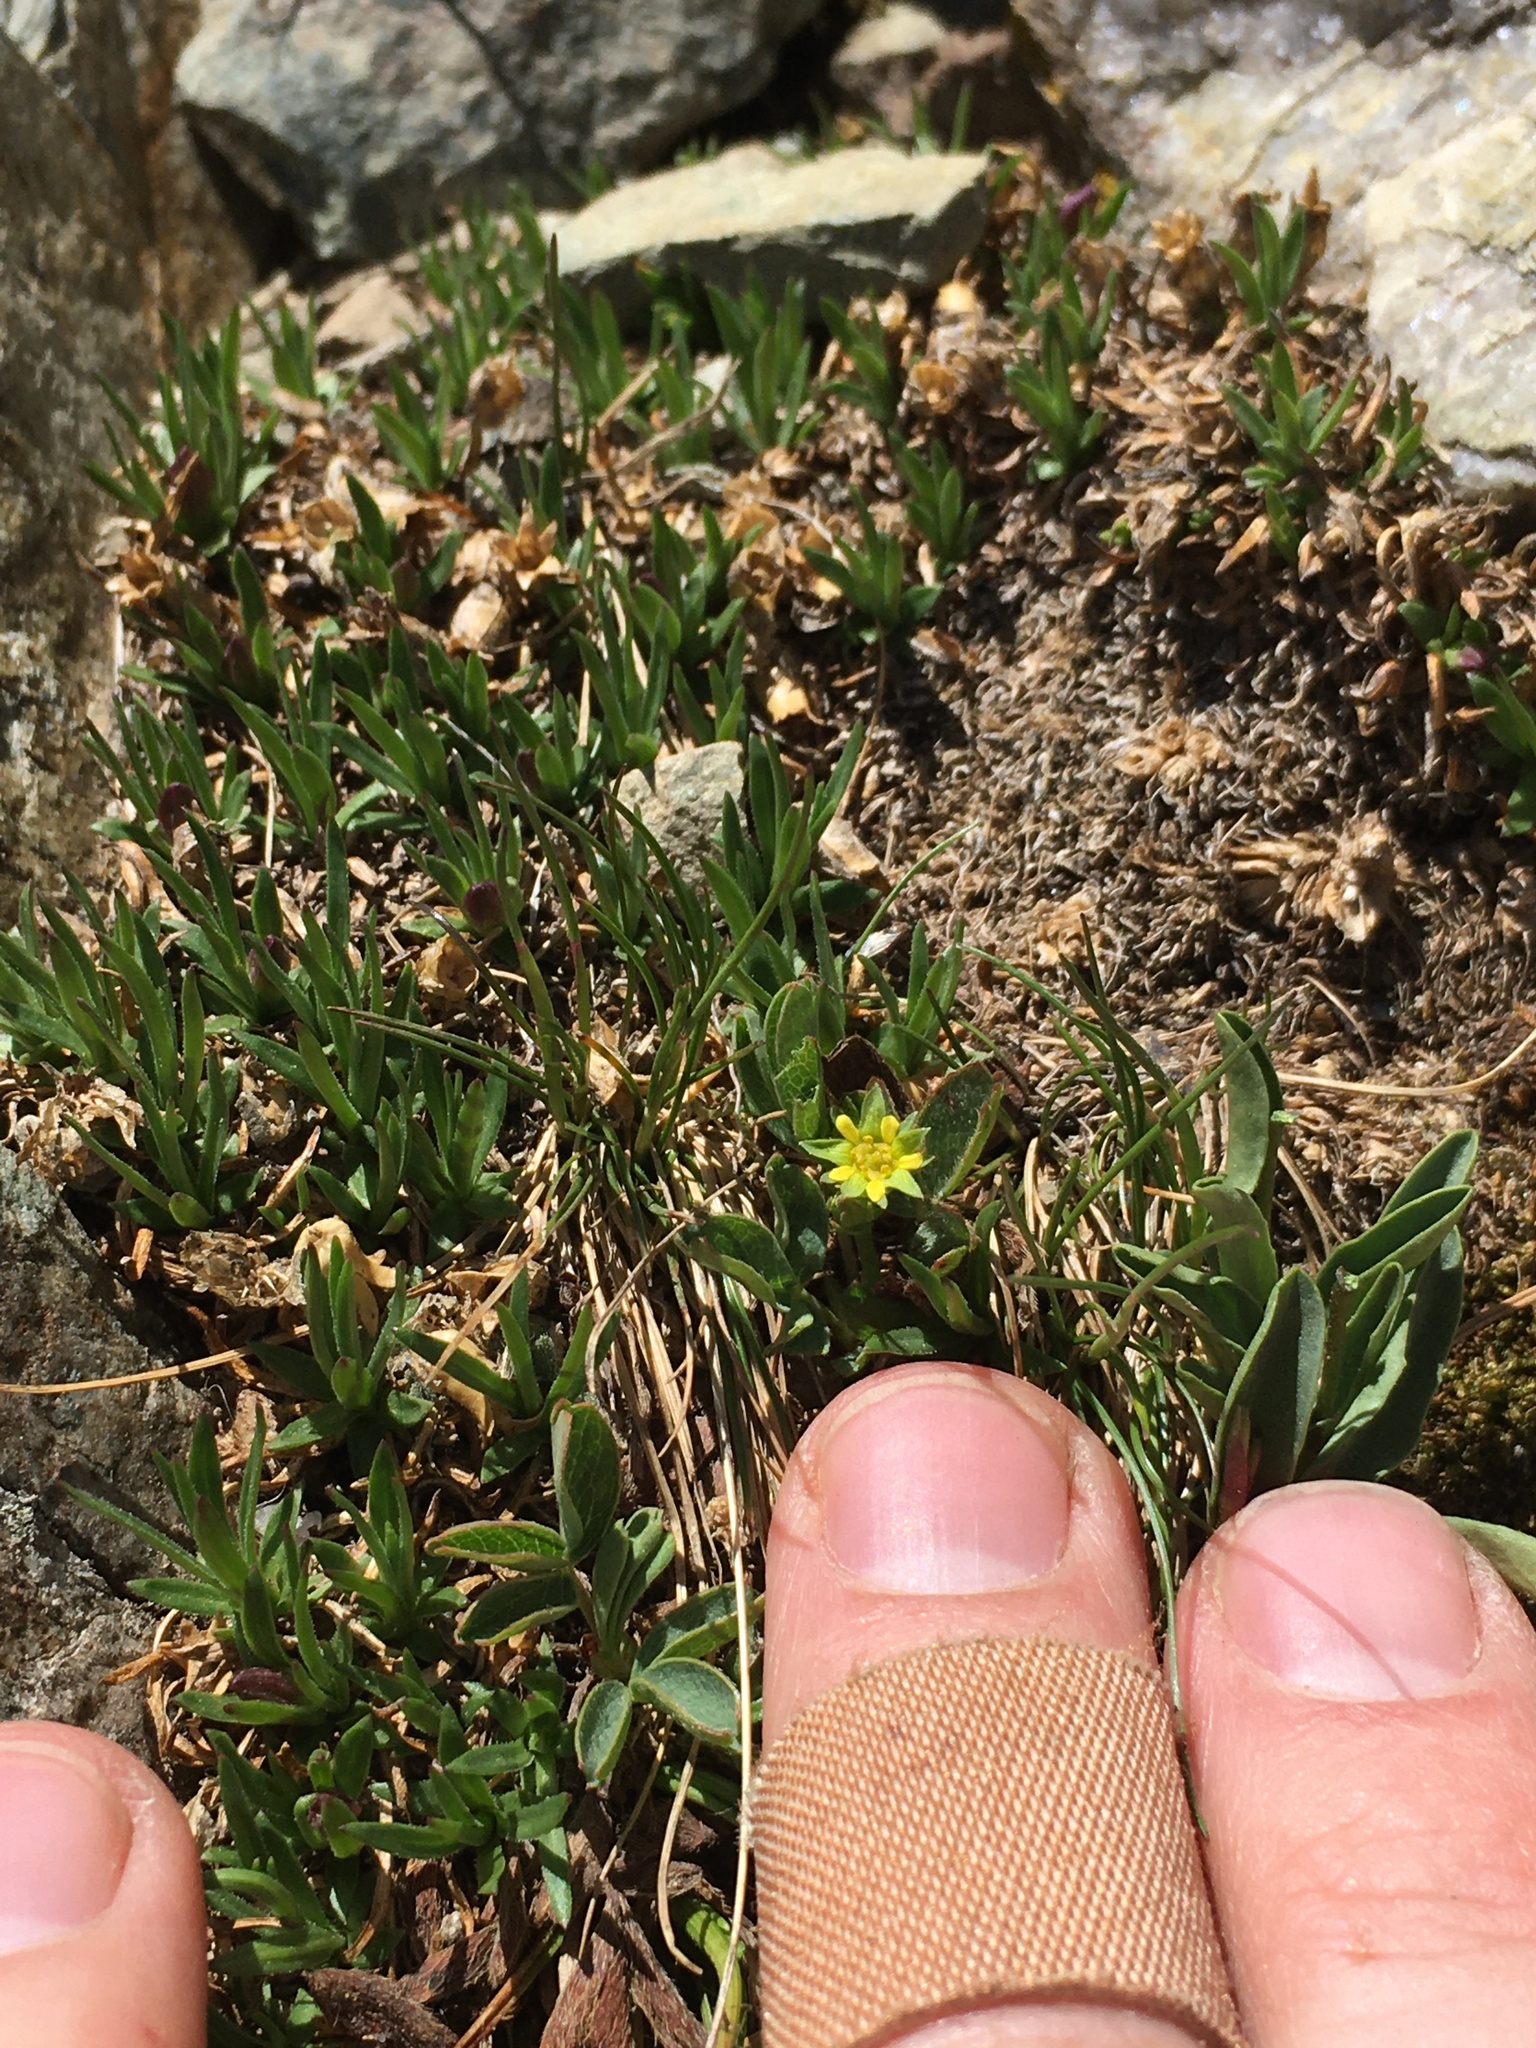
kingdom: Plantae
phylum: Tracheophyta
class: Magnoliopsida
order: Rosales
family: Rosaceae
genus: Sibbaldia
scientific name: Sibbaldia procumbens
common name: Creeping sibbaldia
